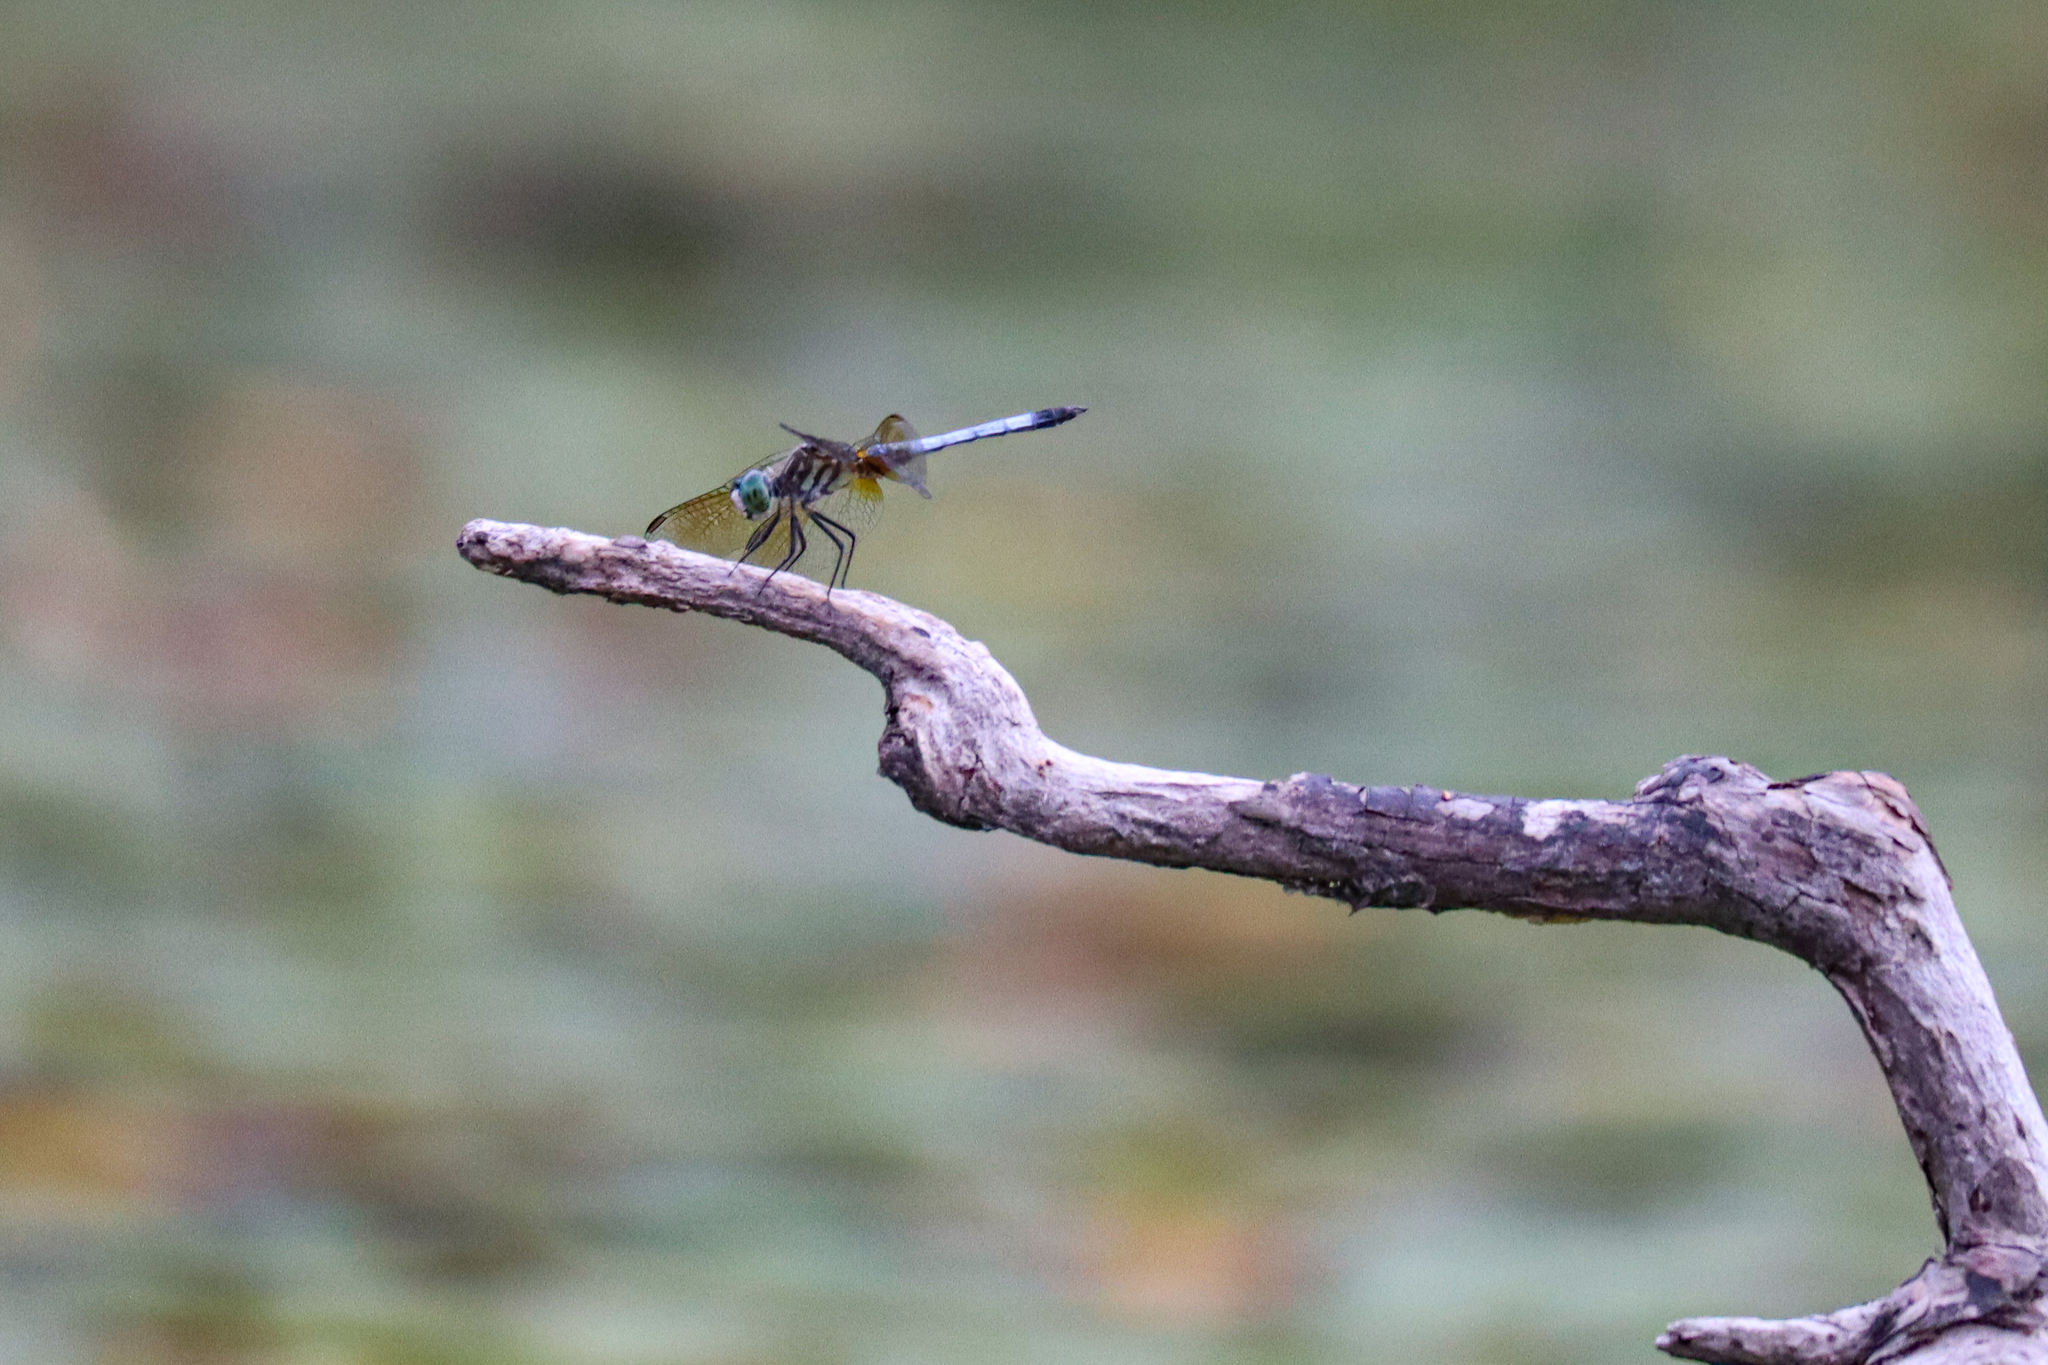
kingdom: Animalia
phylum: Arthropoda
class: Insecta
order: Odonata
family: Libellulidae
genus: Pachydiplax
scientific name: Pachydiplax longipennis
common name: Blue dasher
